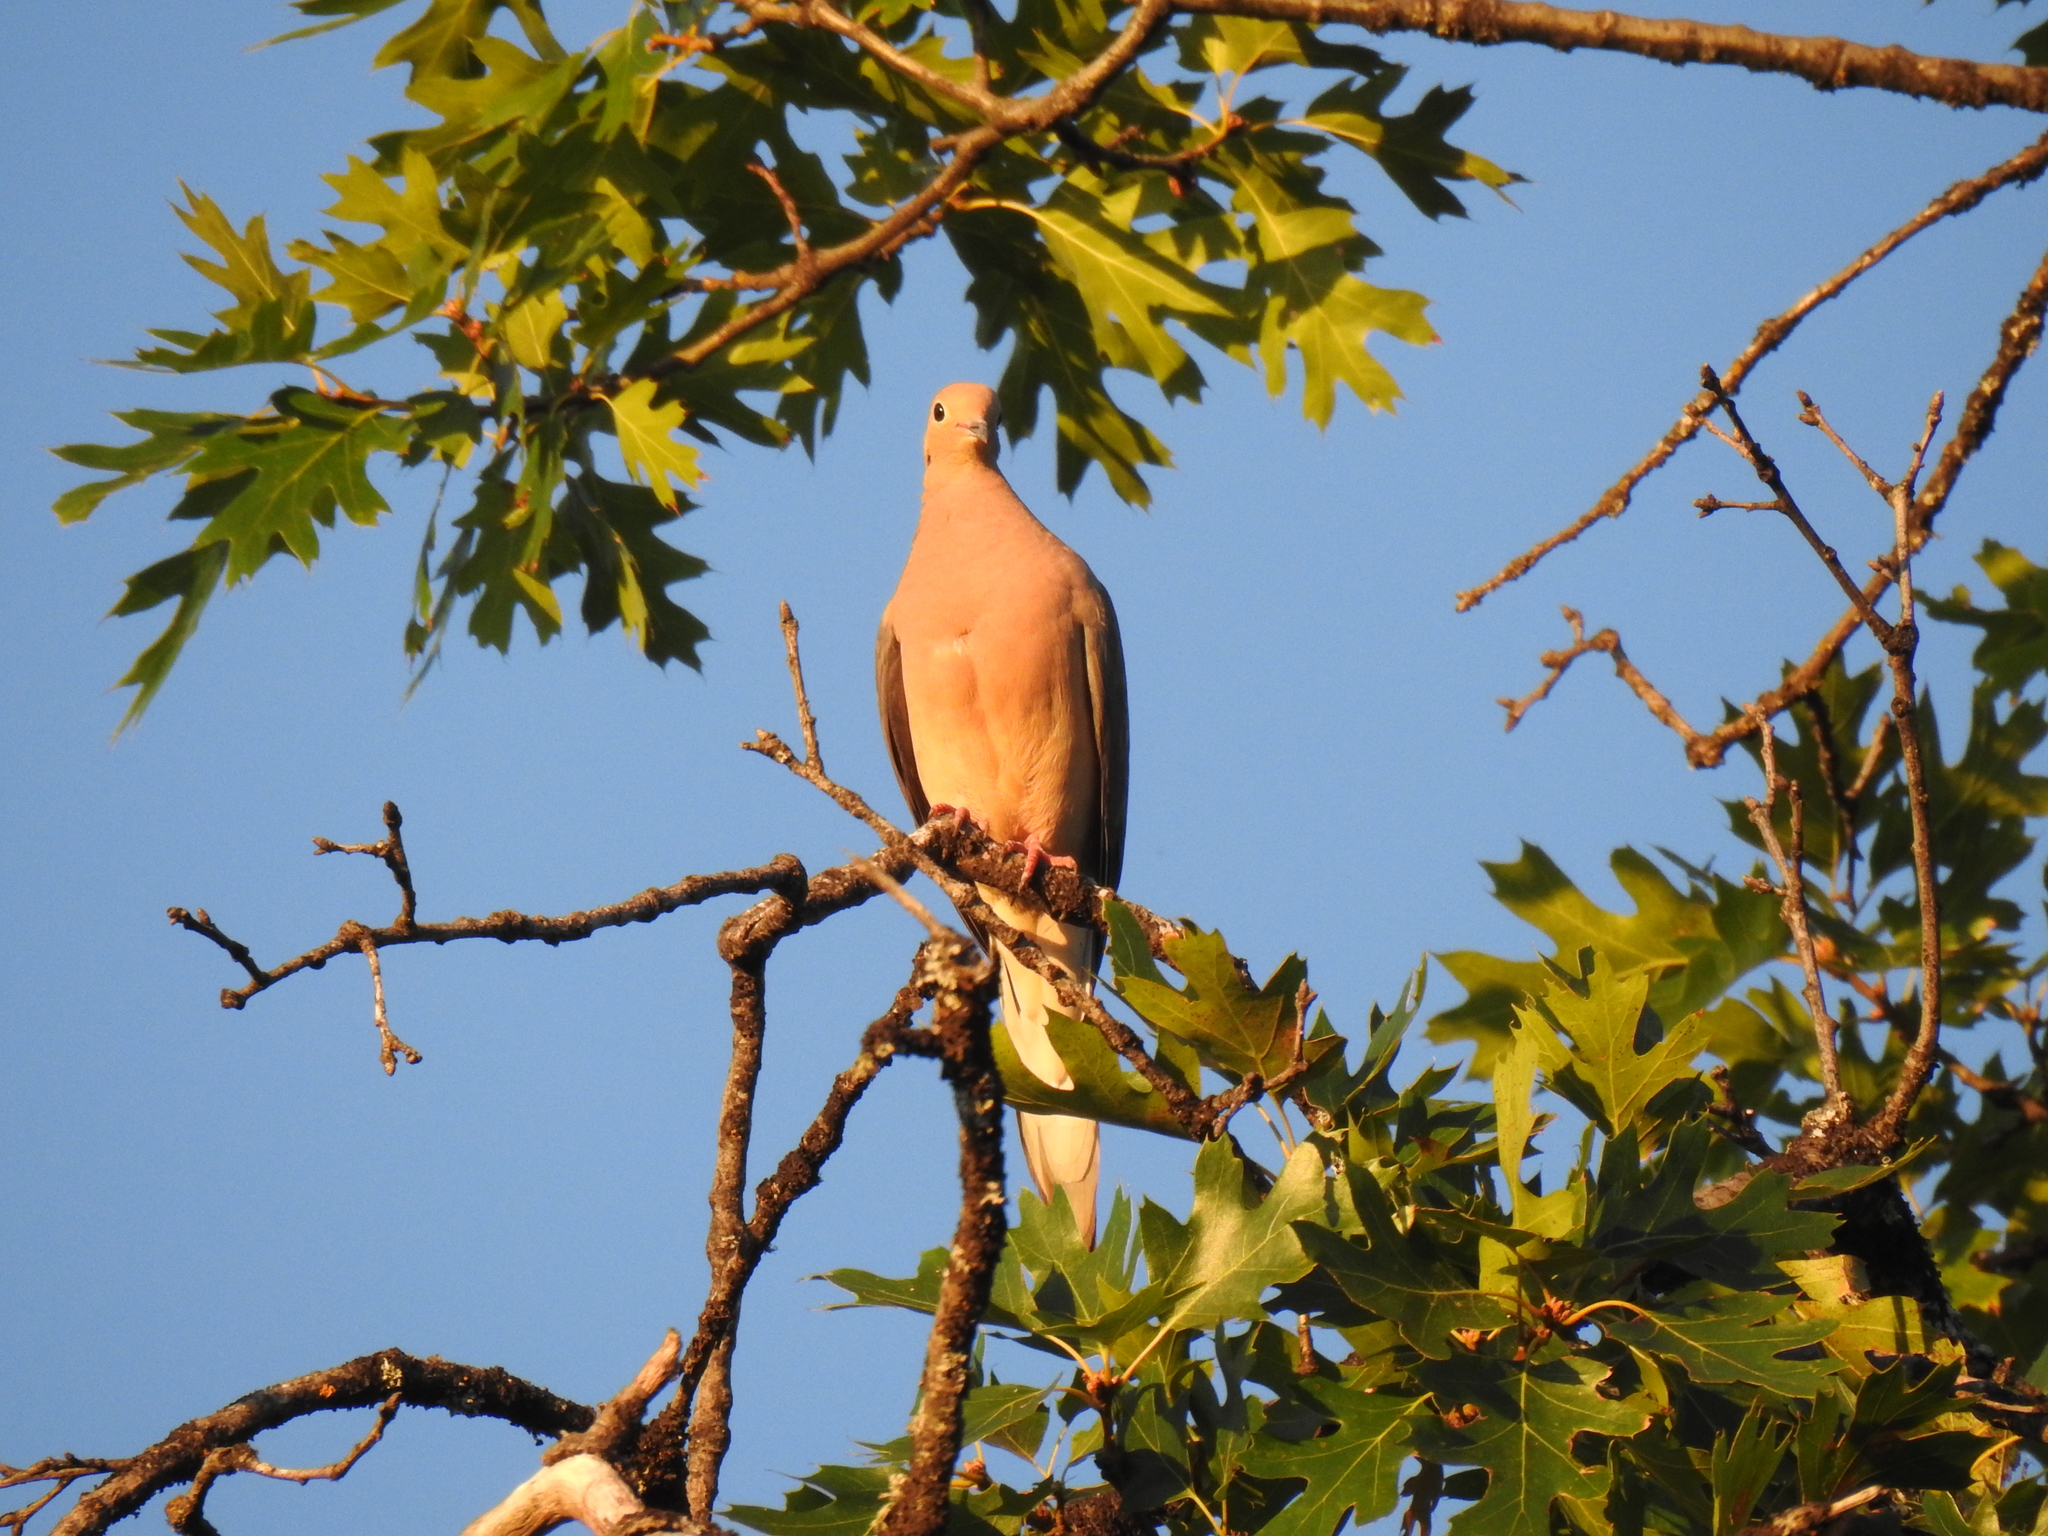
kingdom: Animalia
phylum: Chordata
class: Aves
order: Columbiformes
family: Columbidae
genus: Zenaida
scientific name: Zenaida macroura
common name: Mourning dove
